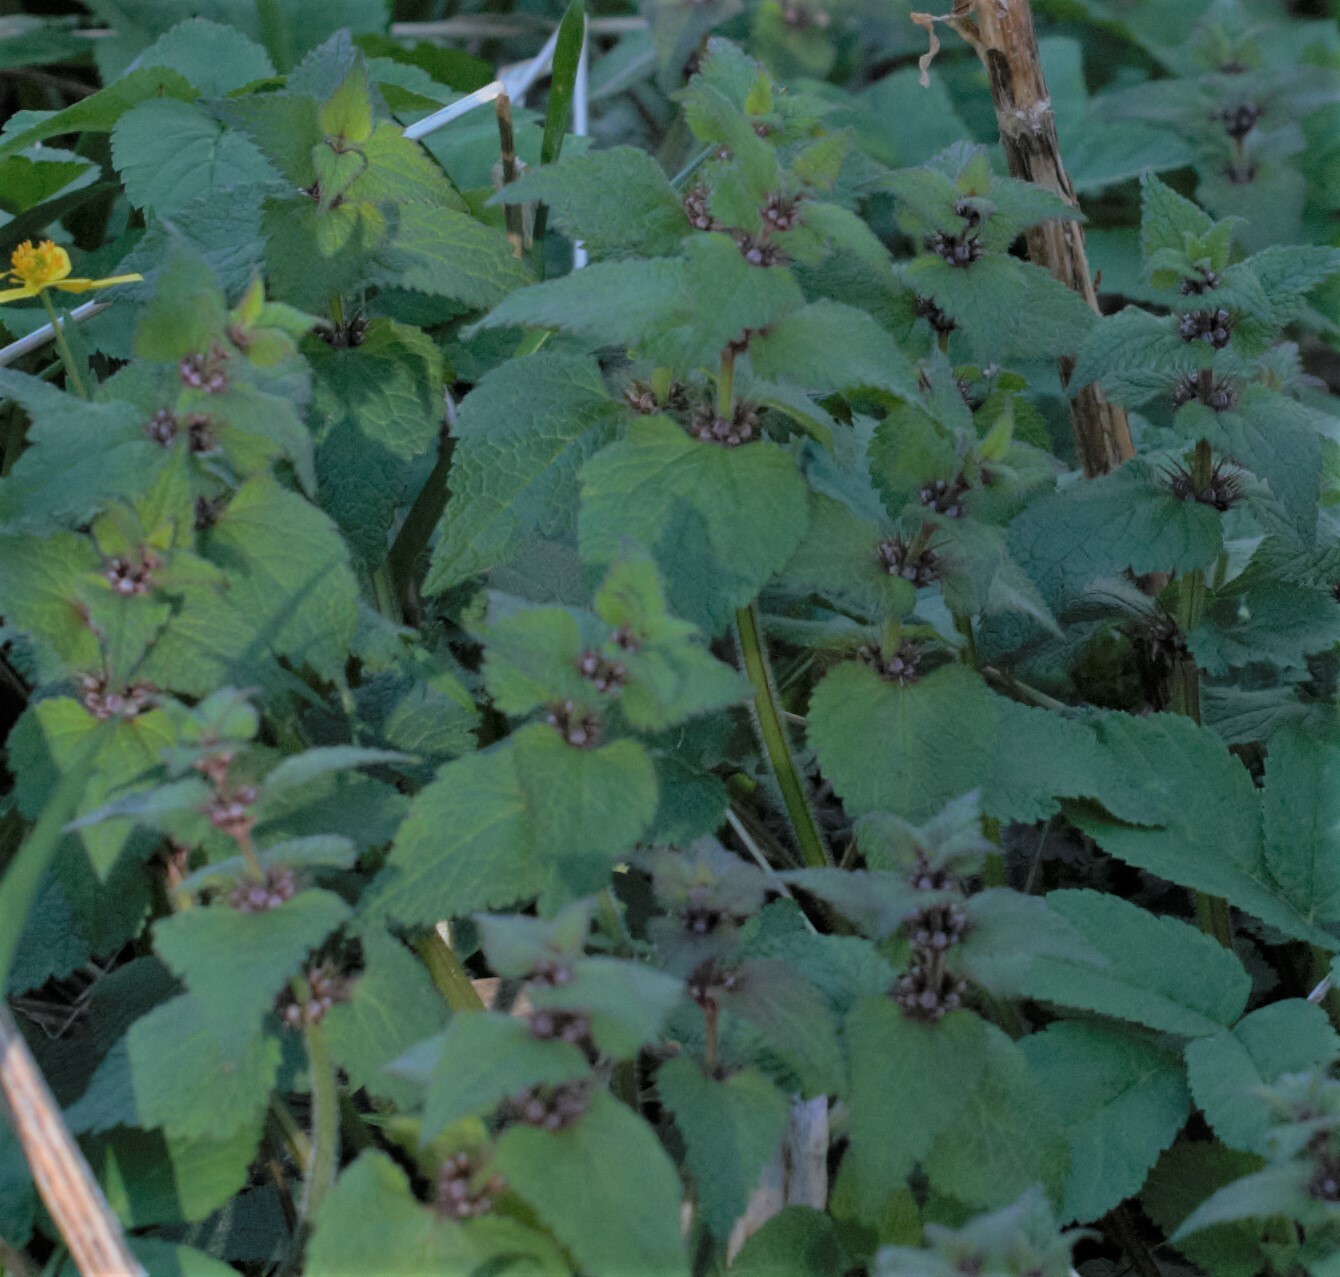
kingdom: Plantae
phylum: Tracheophyta
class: Magnoliopsida
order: Lamiales
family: Lamiaceae
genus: Lamium
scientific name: Lamium maculatum
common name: Spotted dead-nettle
